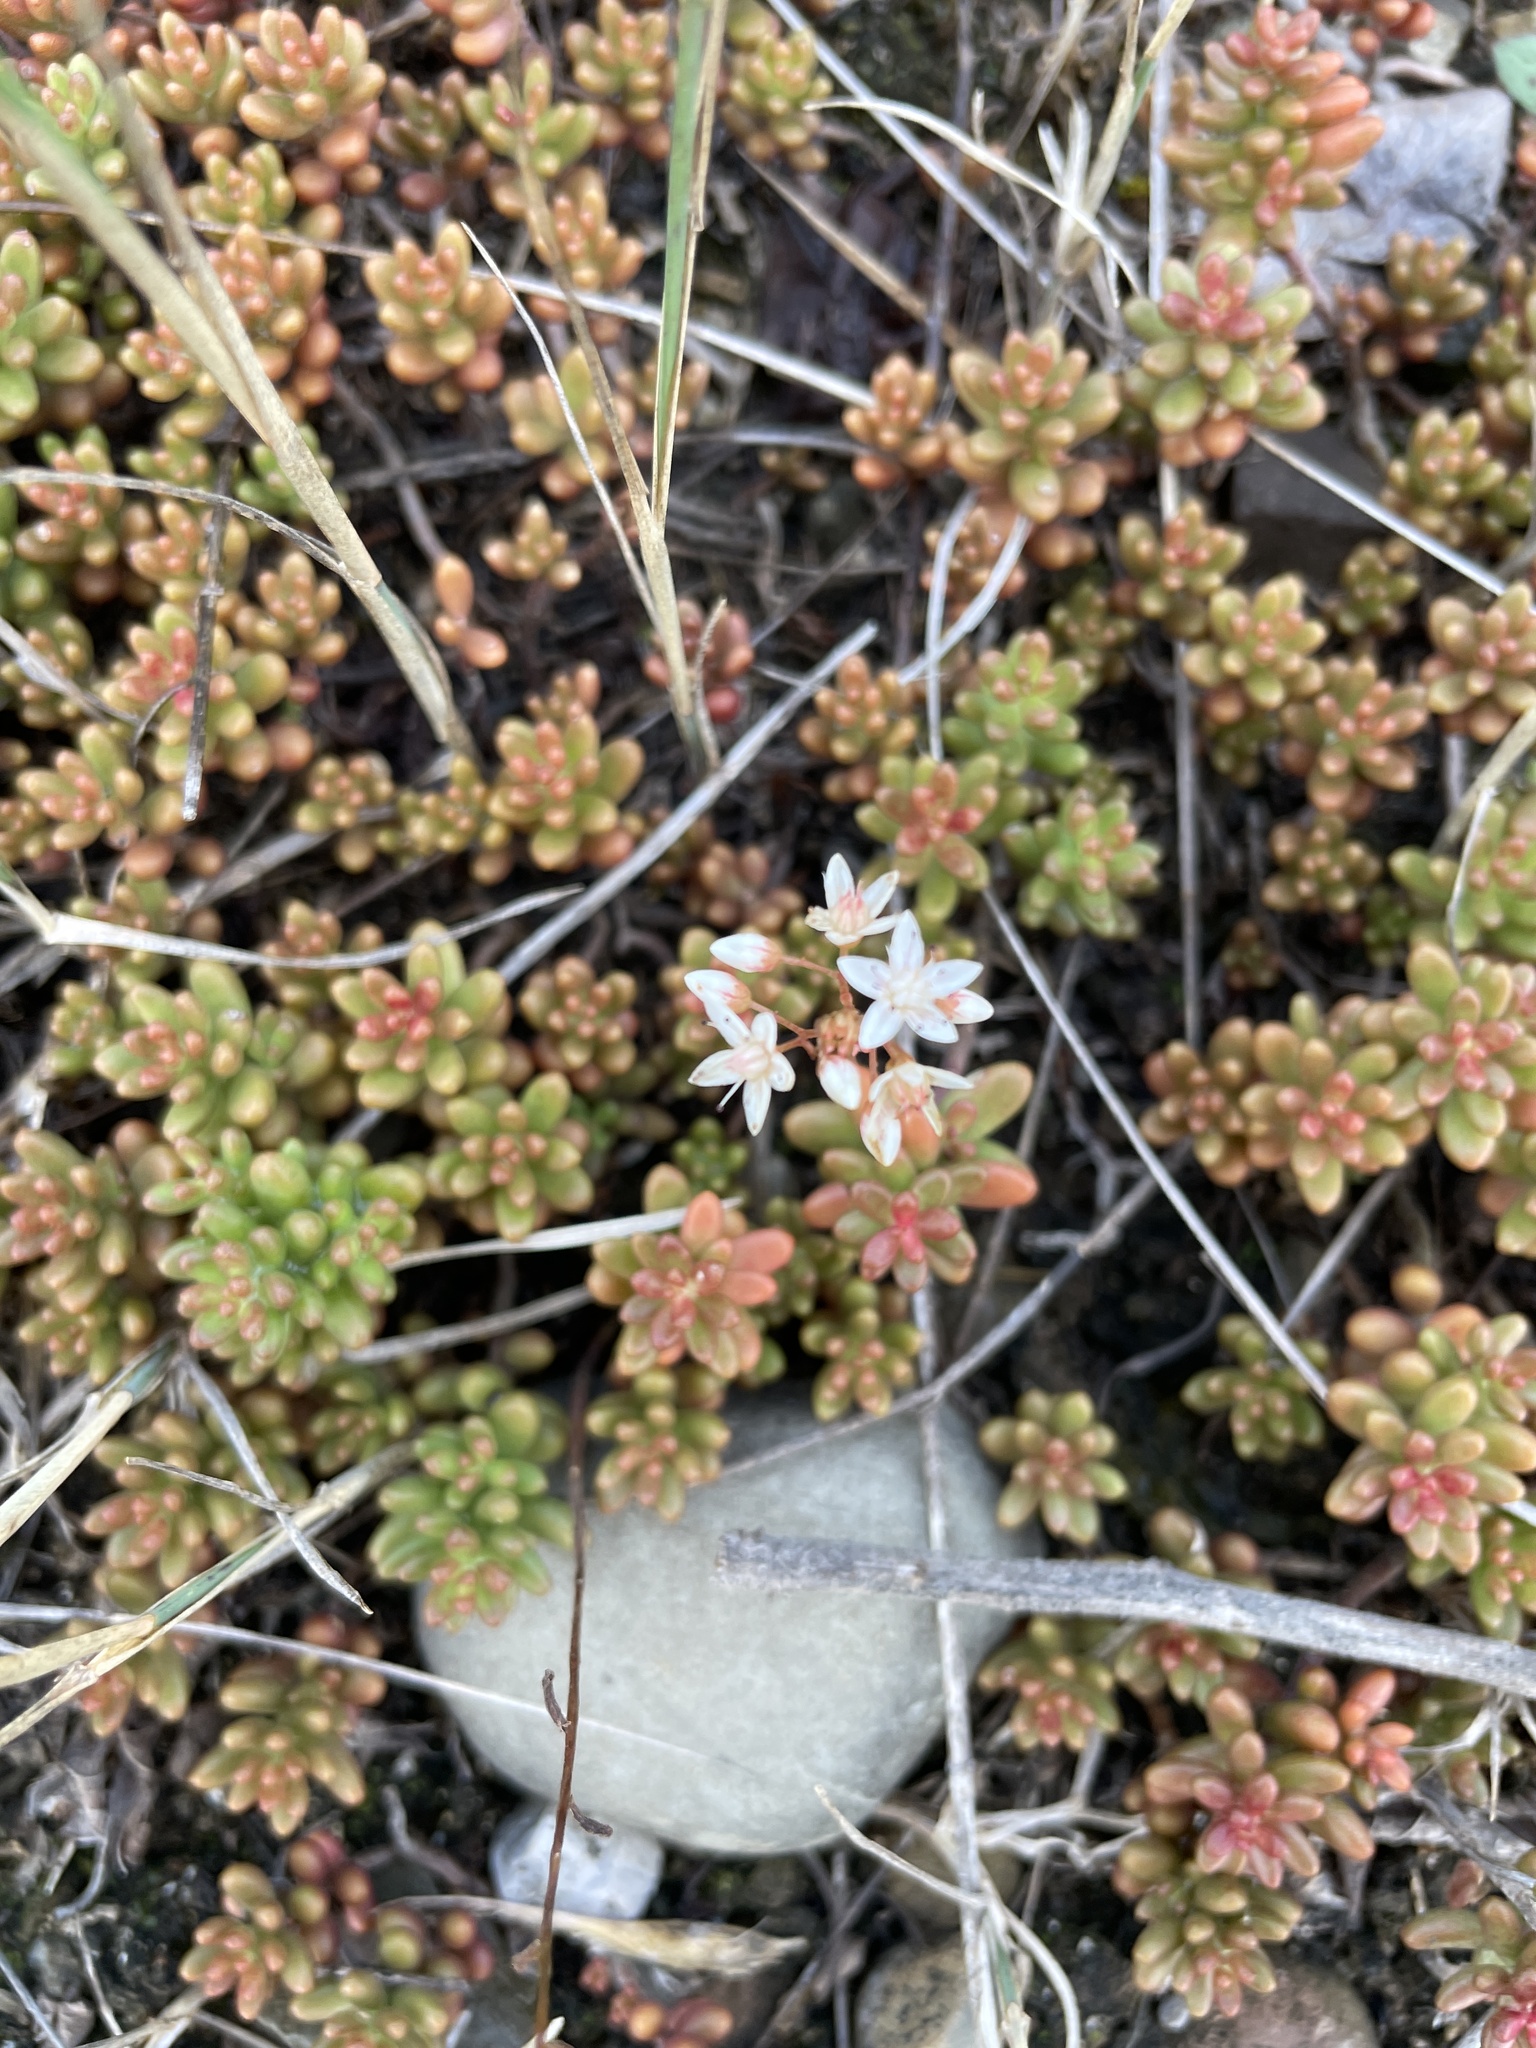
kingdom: Plantae
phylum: Tracheophyta
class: Magnoliopsida
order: Saxifragales
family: Crassulaceae
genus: Sedum
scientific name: Sedum album
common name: White stonecrop
